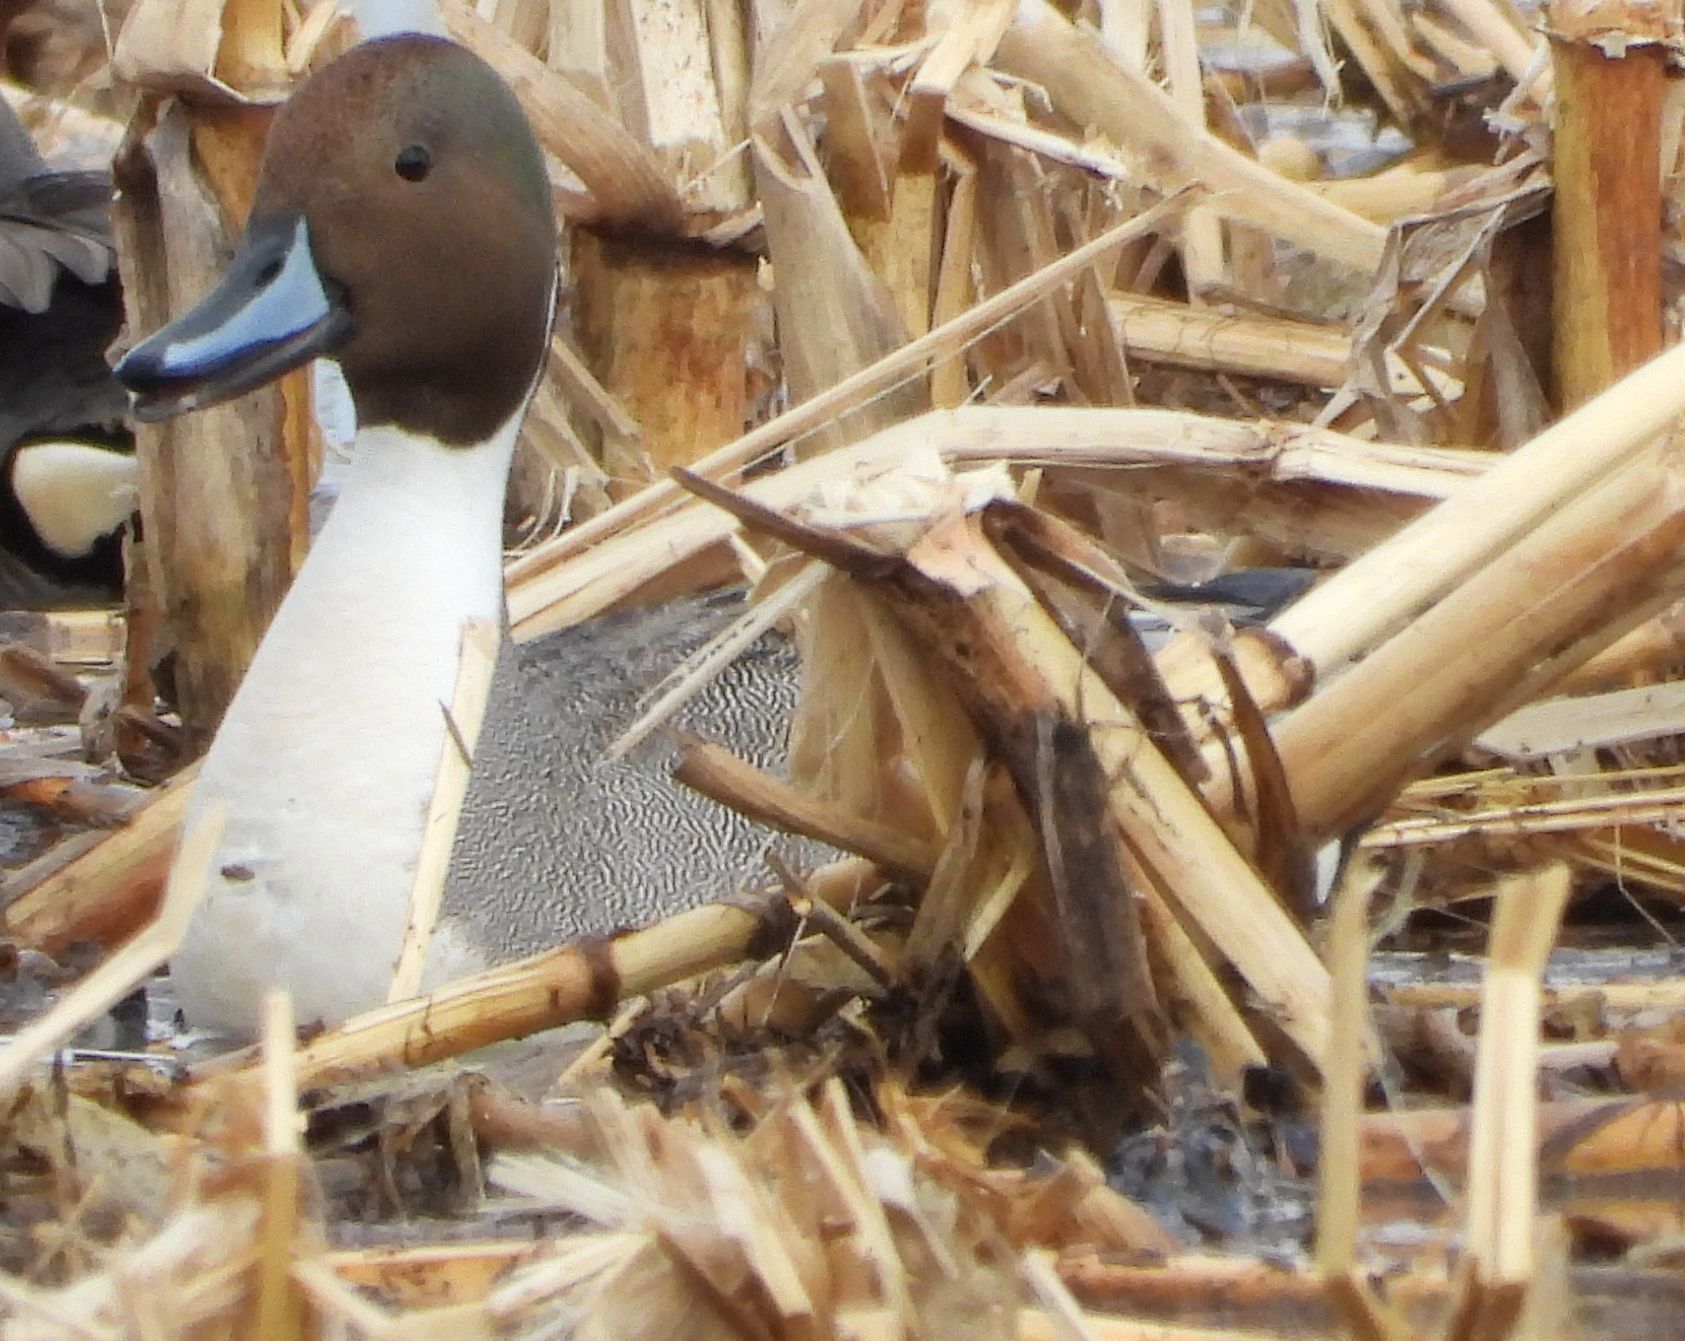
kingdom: Animalia
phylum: Chordata
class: Aves
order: Anseriformes
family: Anatidae
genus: Anas
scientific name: Anas acuta
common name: Northern pintail
